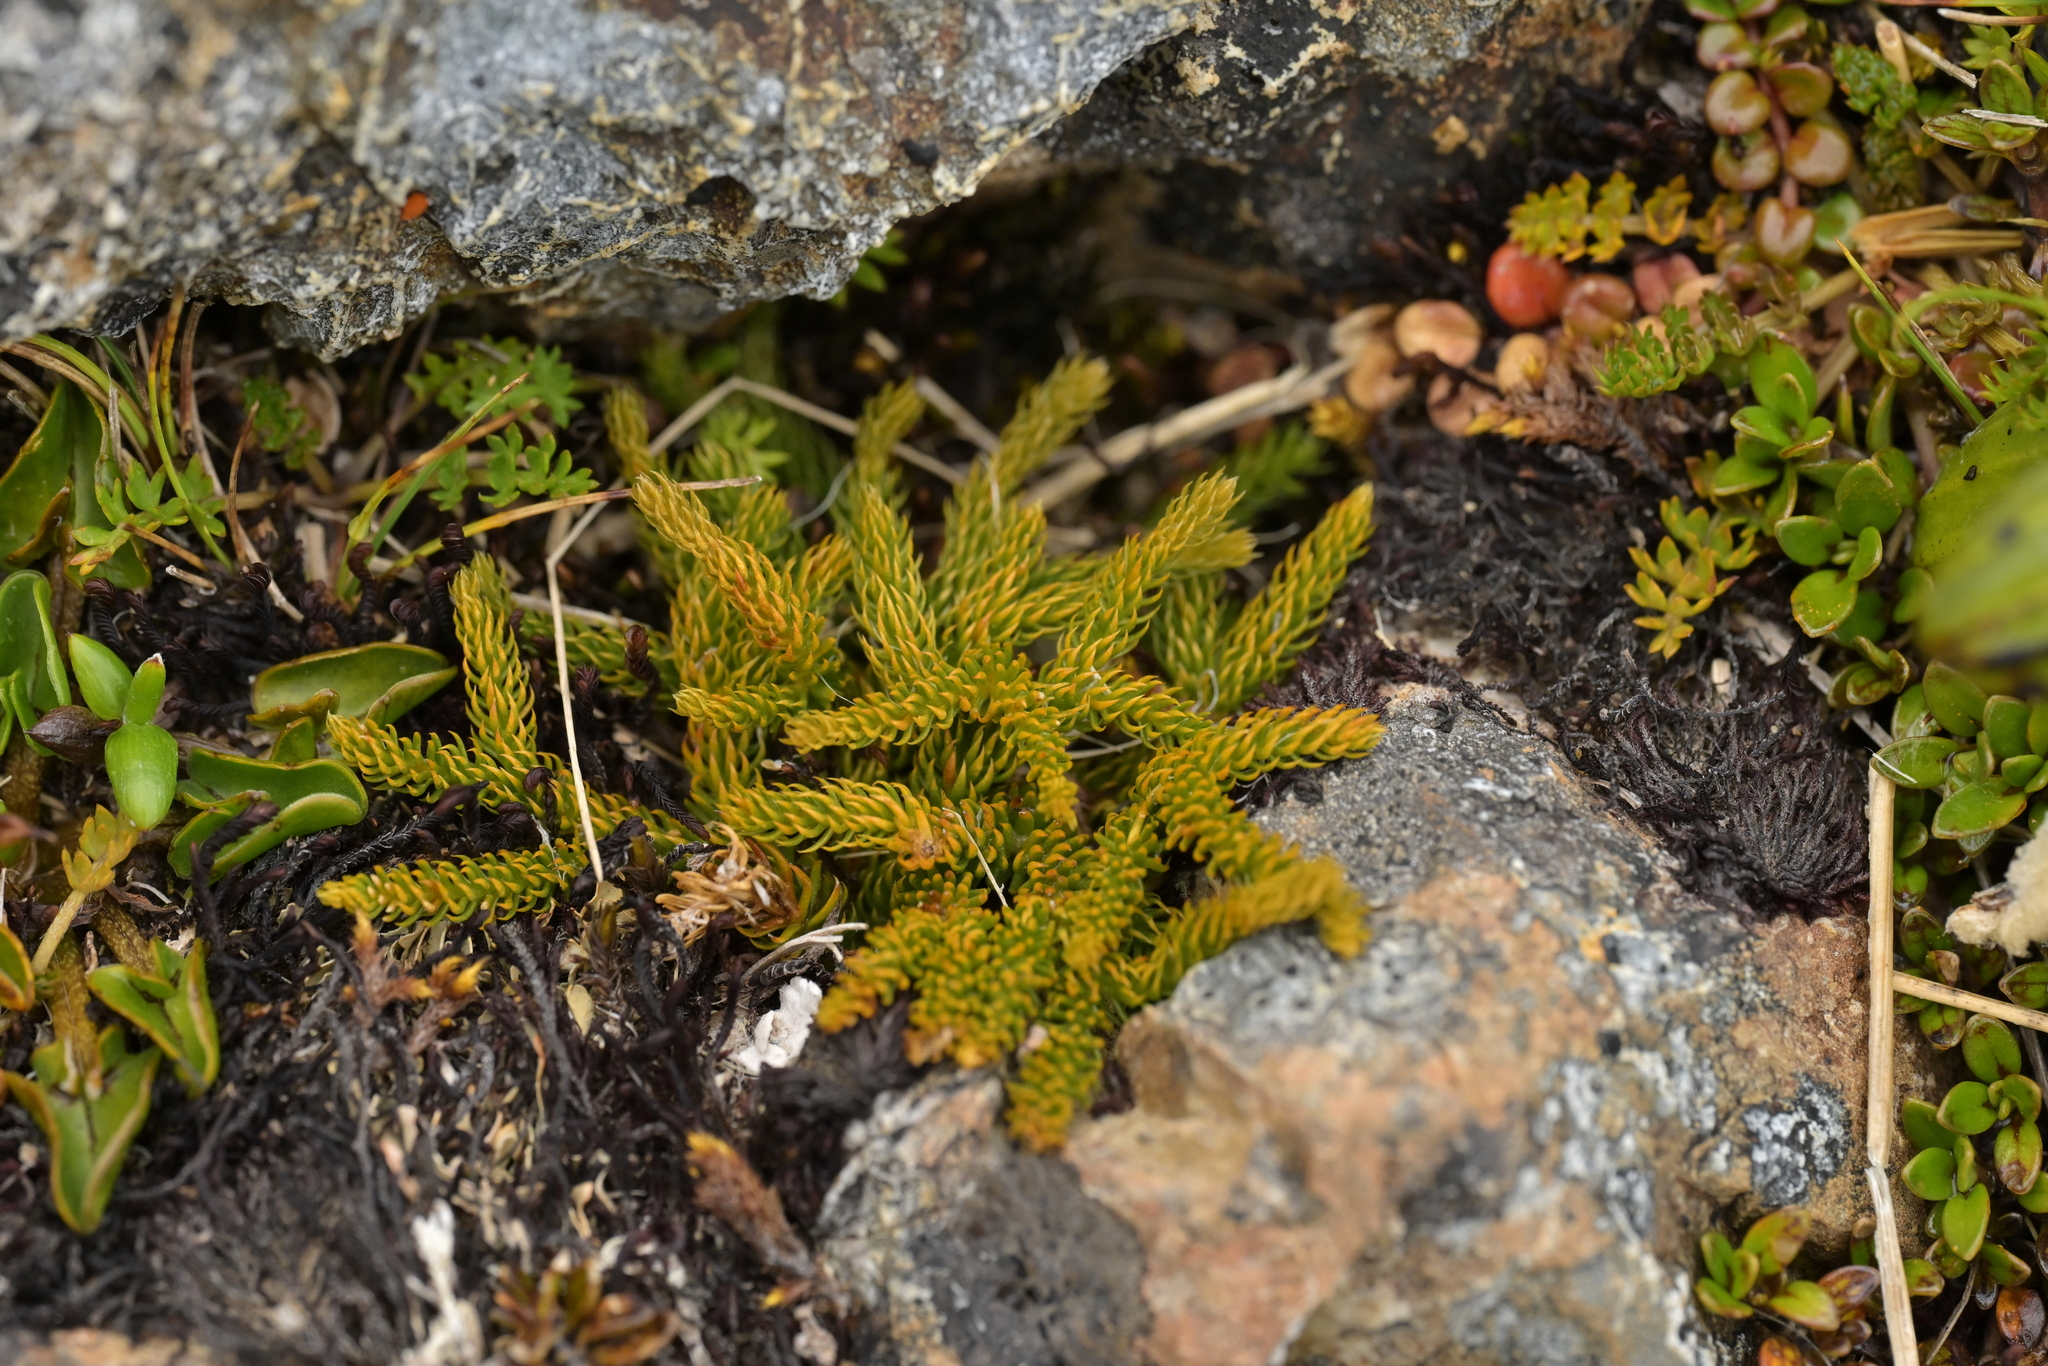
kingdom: Plantae
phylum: Tracheophyta
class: Lycopodiopsida
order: Lycopodiales
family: Lycopodiaceae
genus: Austrolycopodium
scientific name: Austrolycopodium fastigiatum
